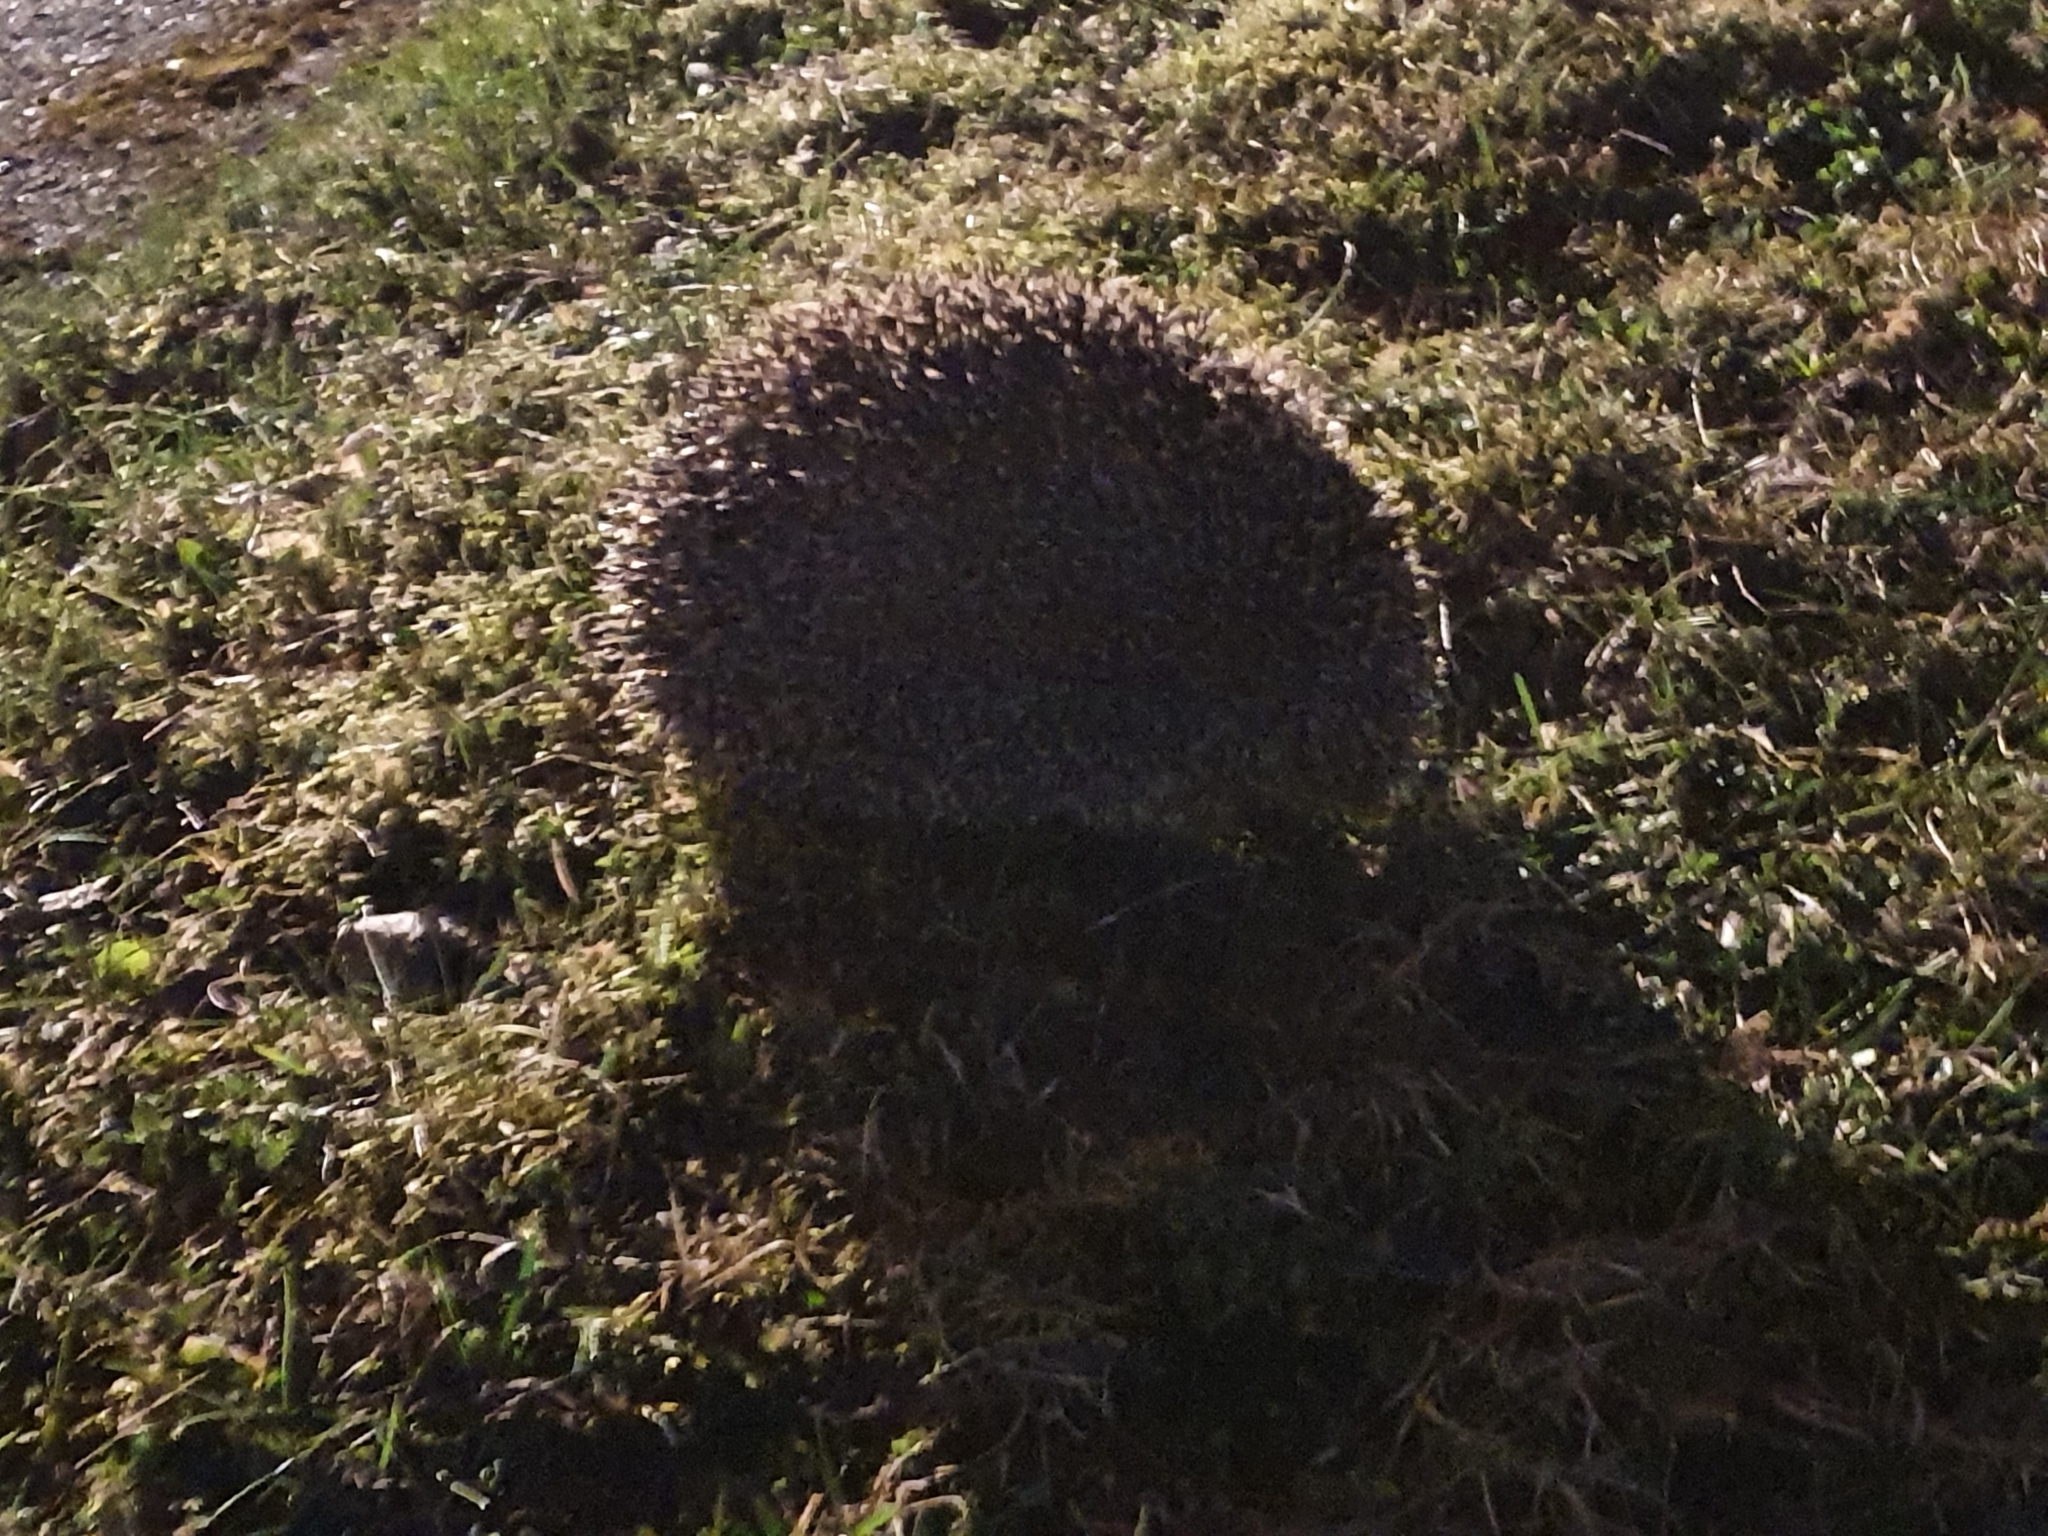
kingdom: Animalia
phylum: Chordata
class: Mammalia
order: Erinaceomorpha
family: Erinaceidae
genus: Erinaceus
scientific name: Erinaceus europaeus
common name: West european hedgehog
